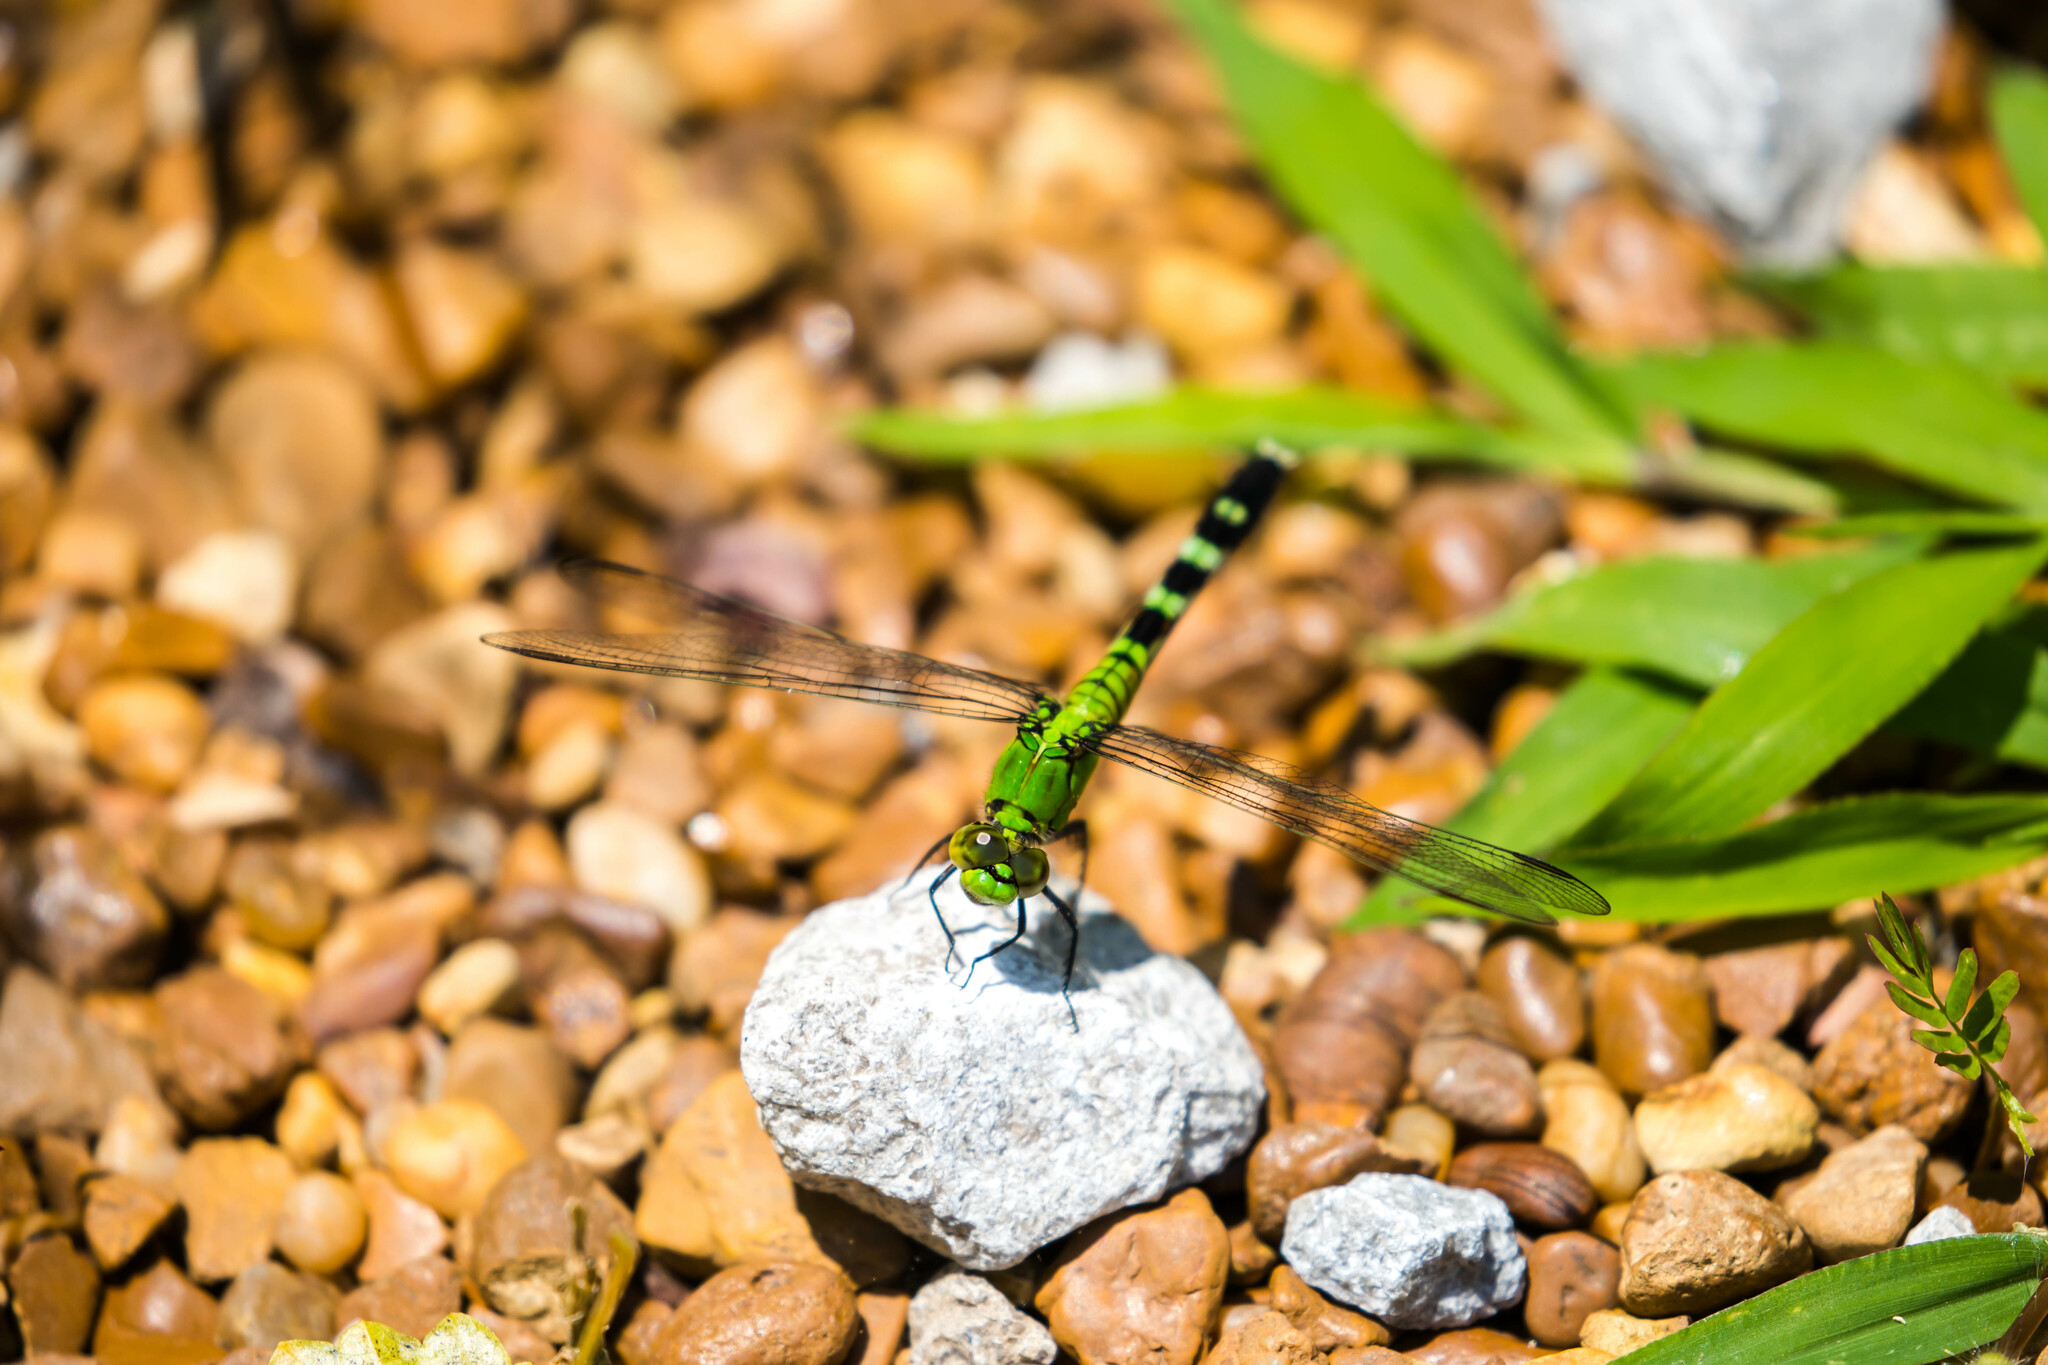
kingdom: Animalia
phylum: Arthropoda
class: Insecta
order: Odonata
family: Libellulidae
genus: Erythemis
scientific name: Erythemis simplicicollis
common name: Eastern pondhawk
